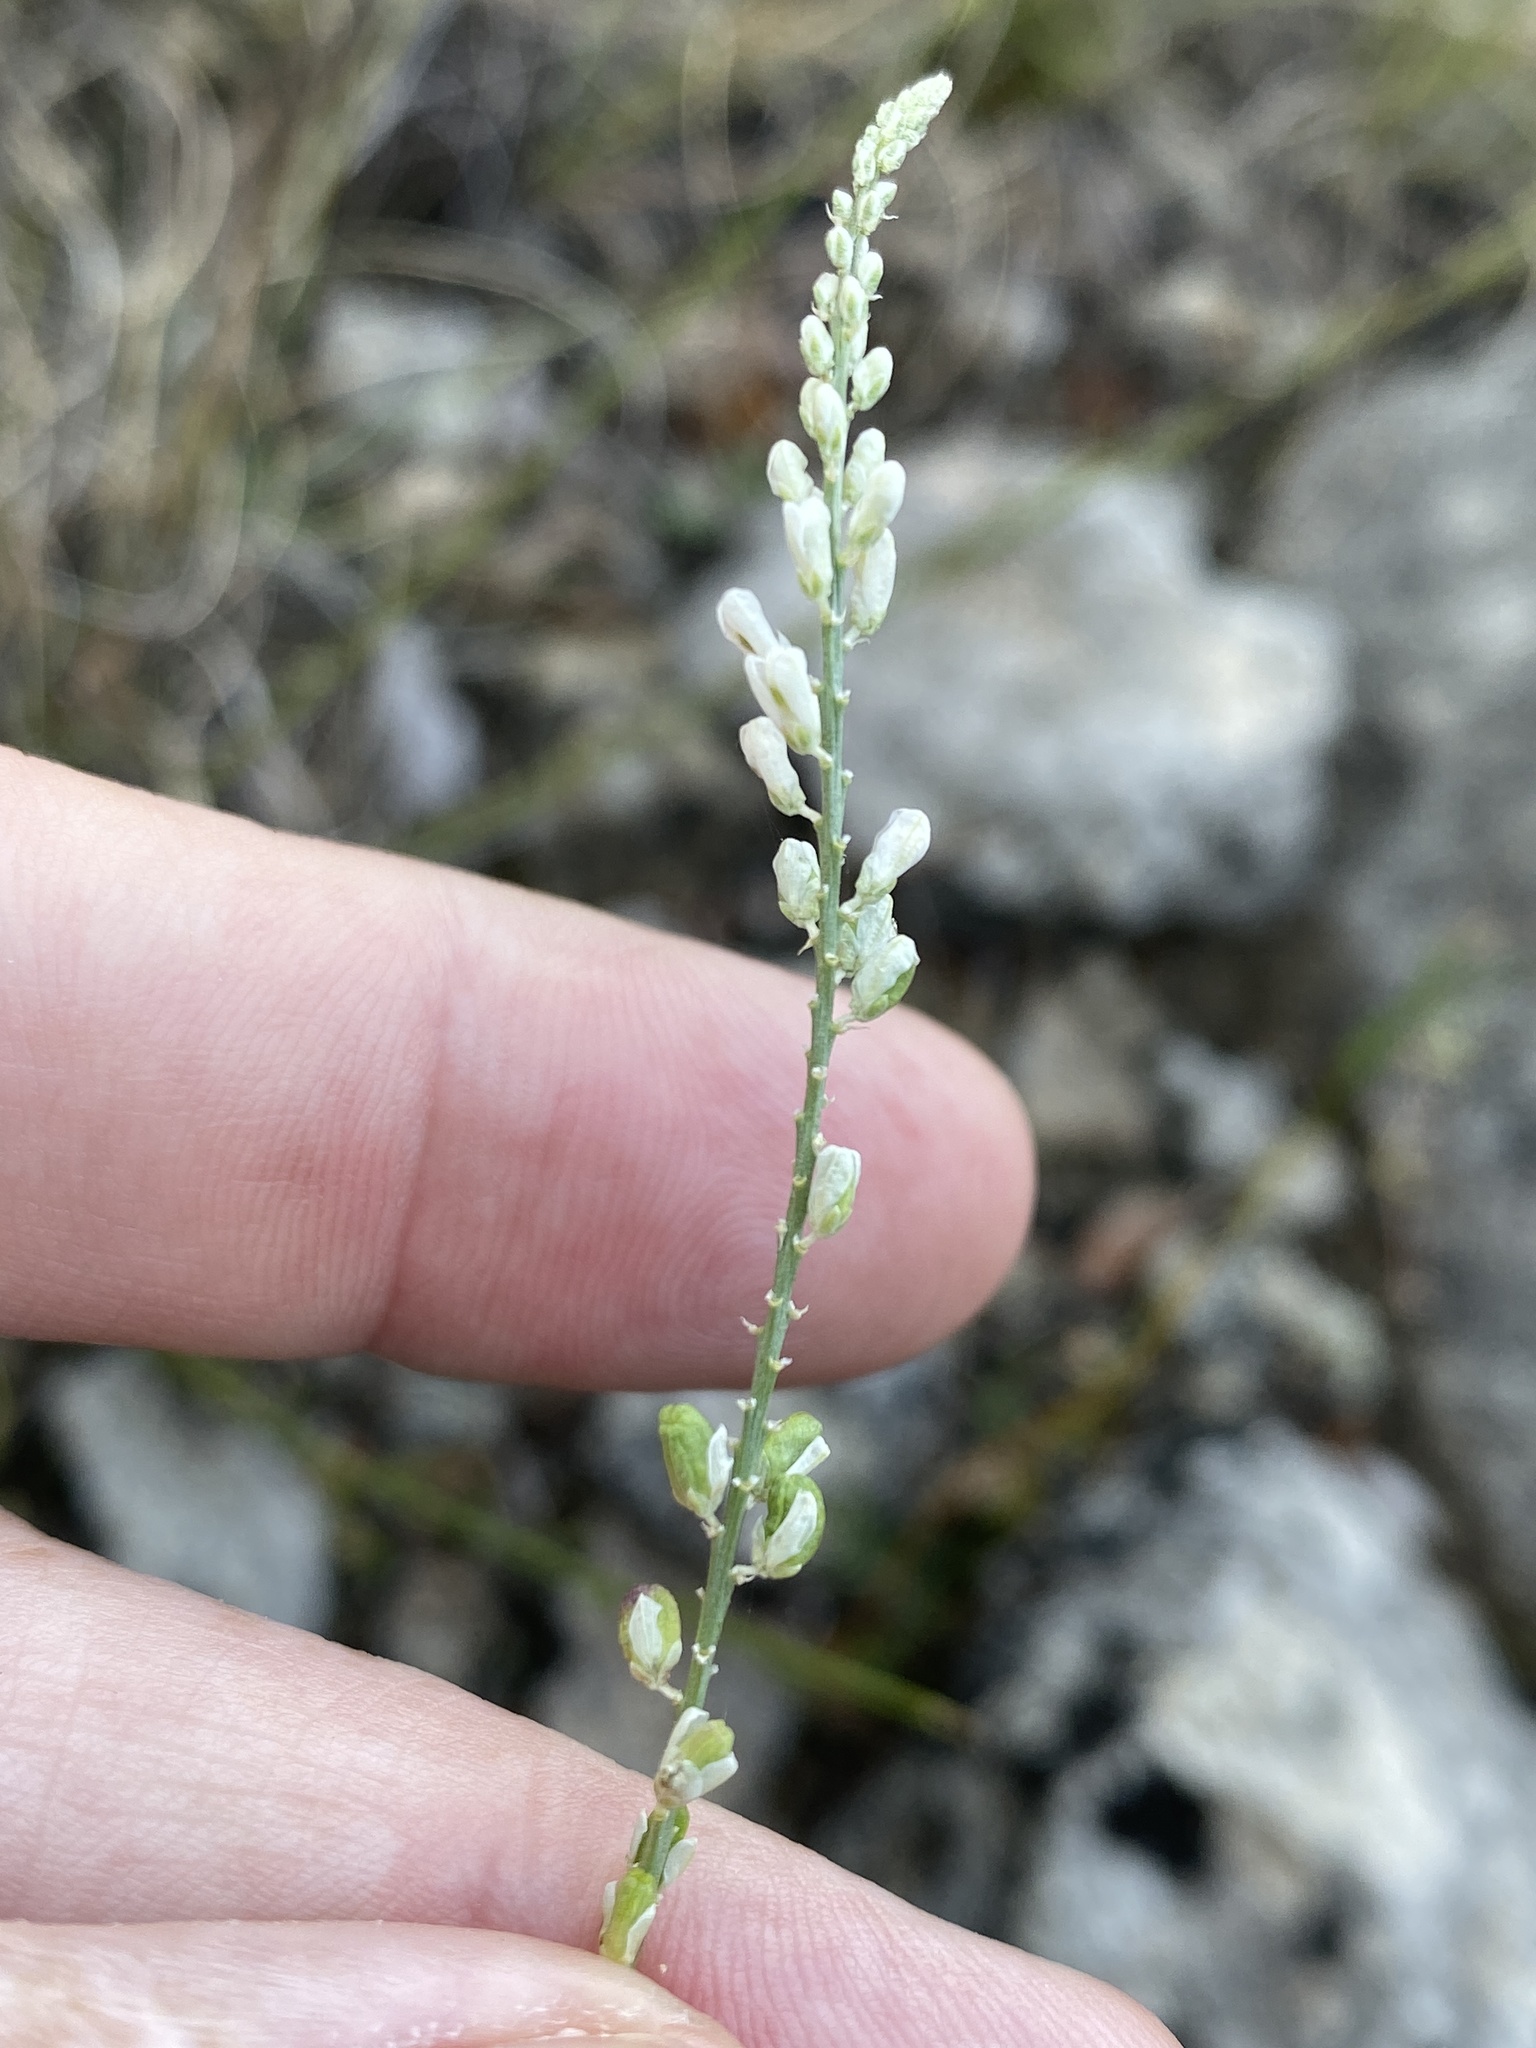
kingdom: Plantae
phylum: Tracheophyta
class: Magnoliopsida
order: Fabales
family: Polygalaceae
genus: Polygala
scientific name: Polygala alba
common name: White milkwort
